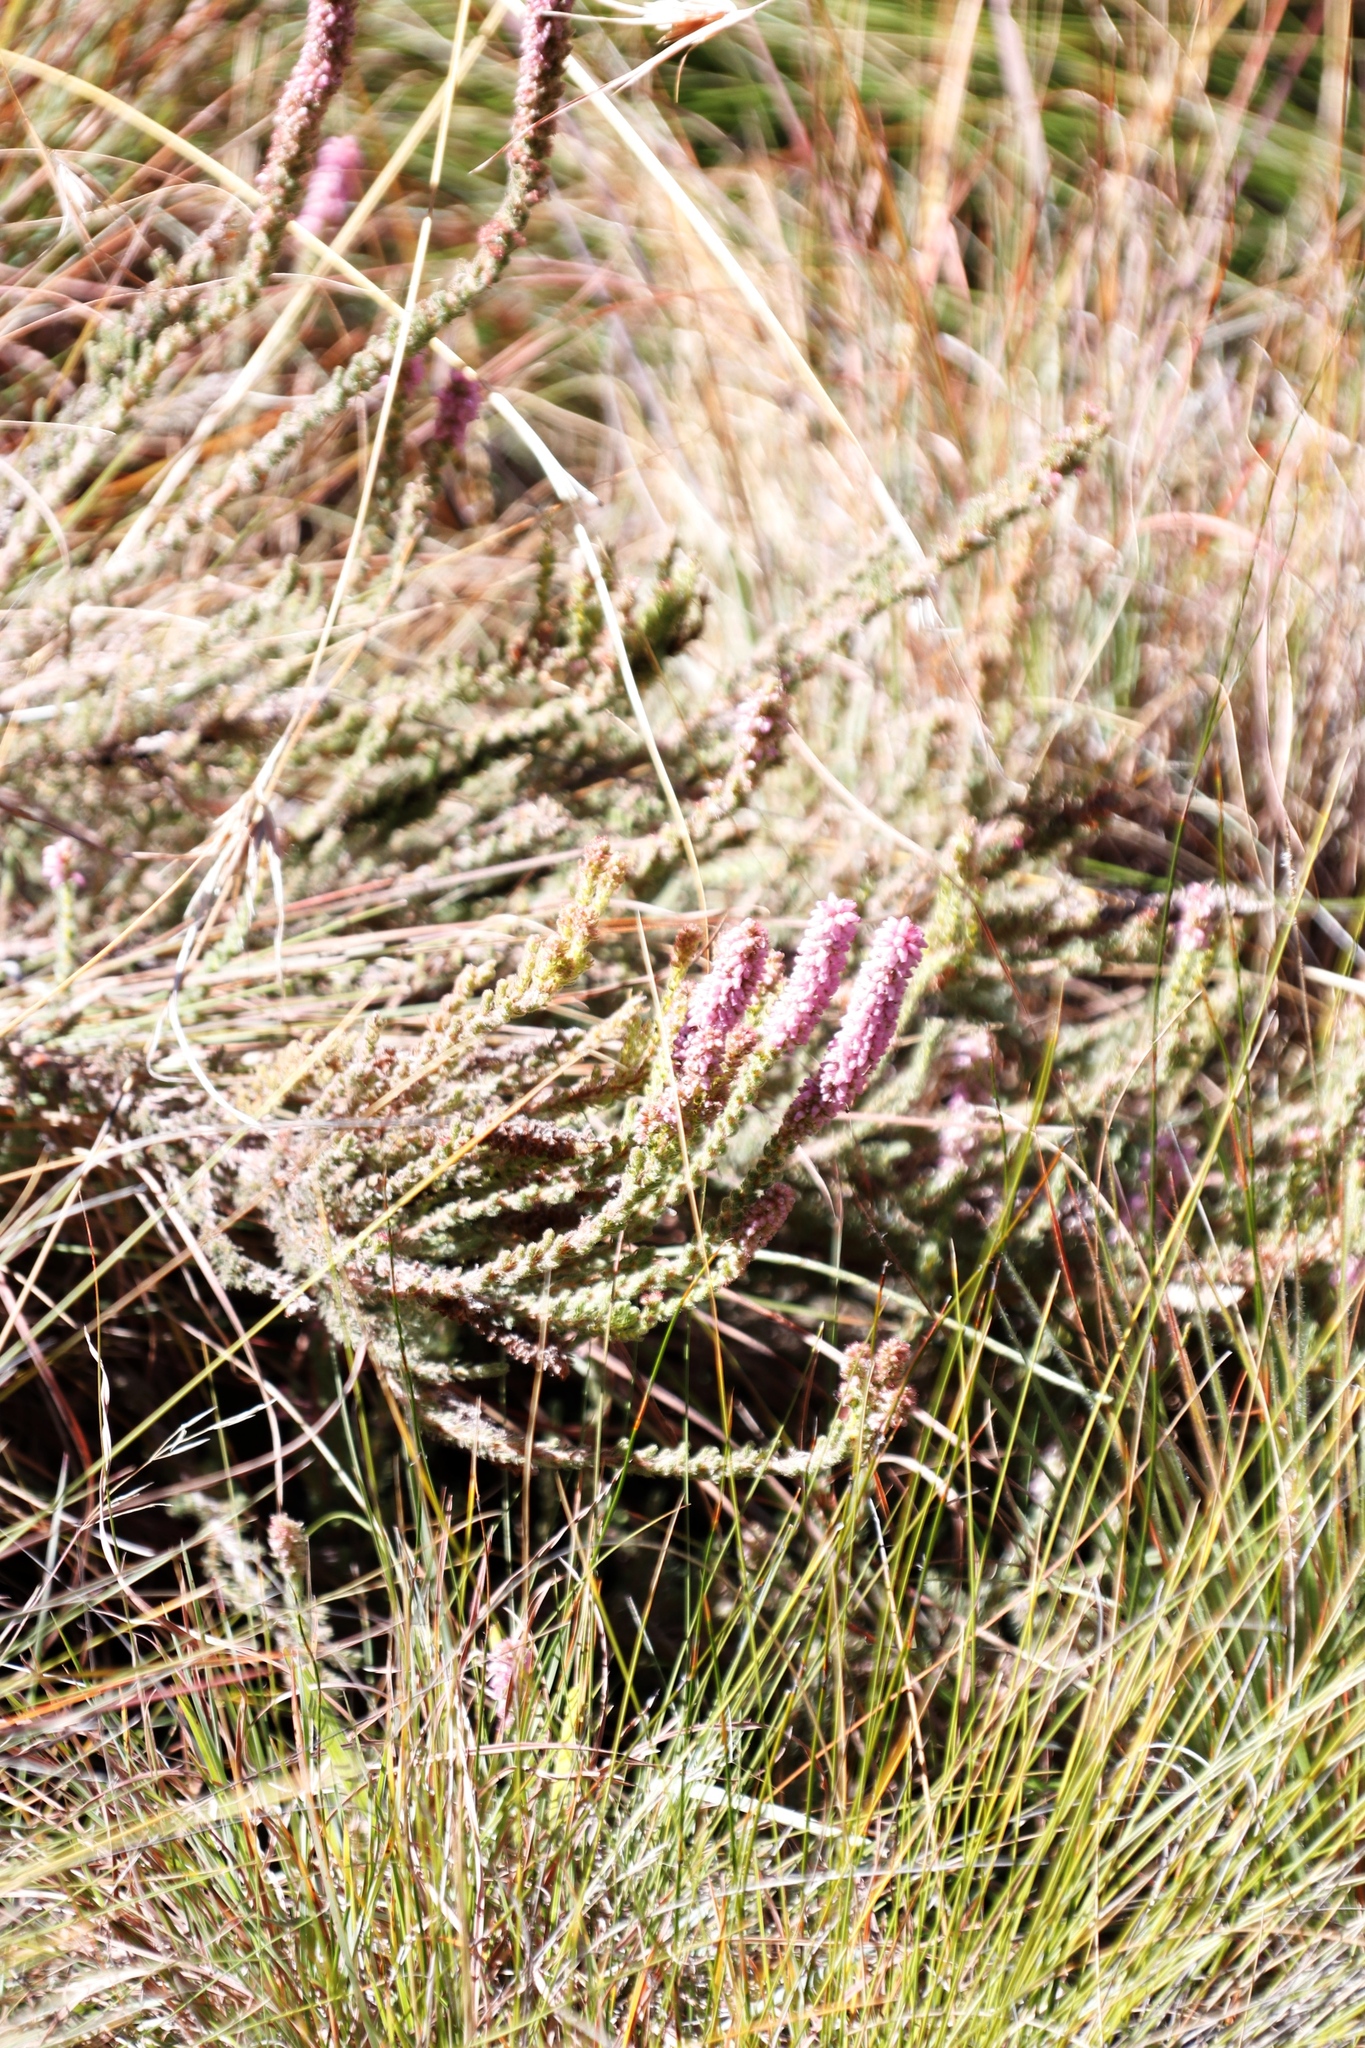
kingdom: Plantae
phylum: Tracheophyta
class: Magnoliopsida
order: Ericales
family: Ericaceae
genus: Erica
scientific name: Erica alopecurus
